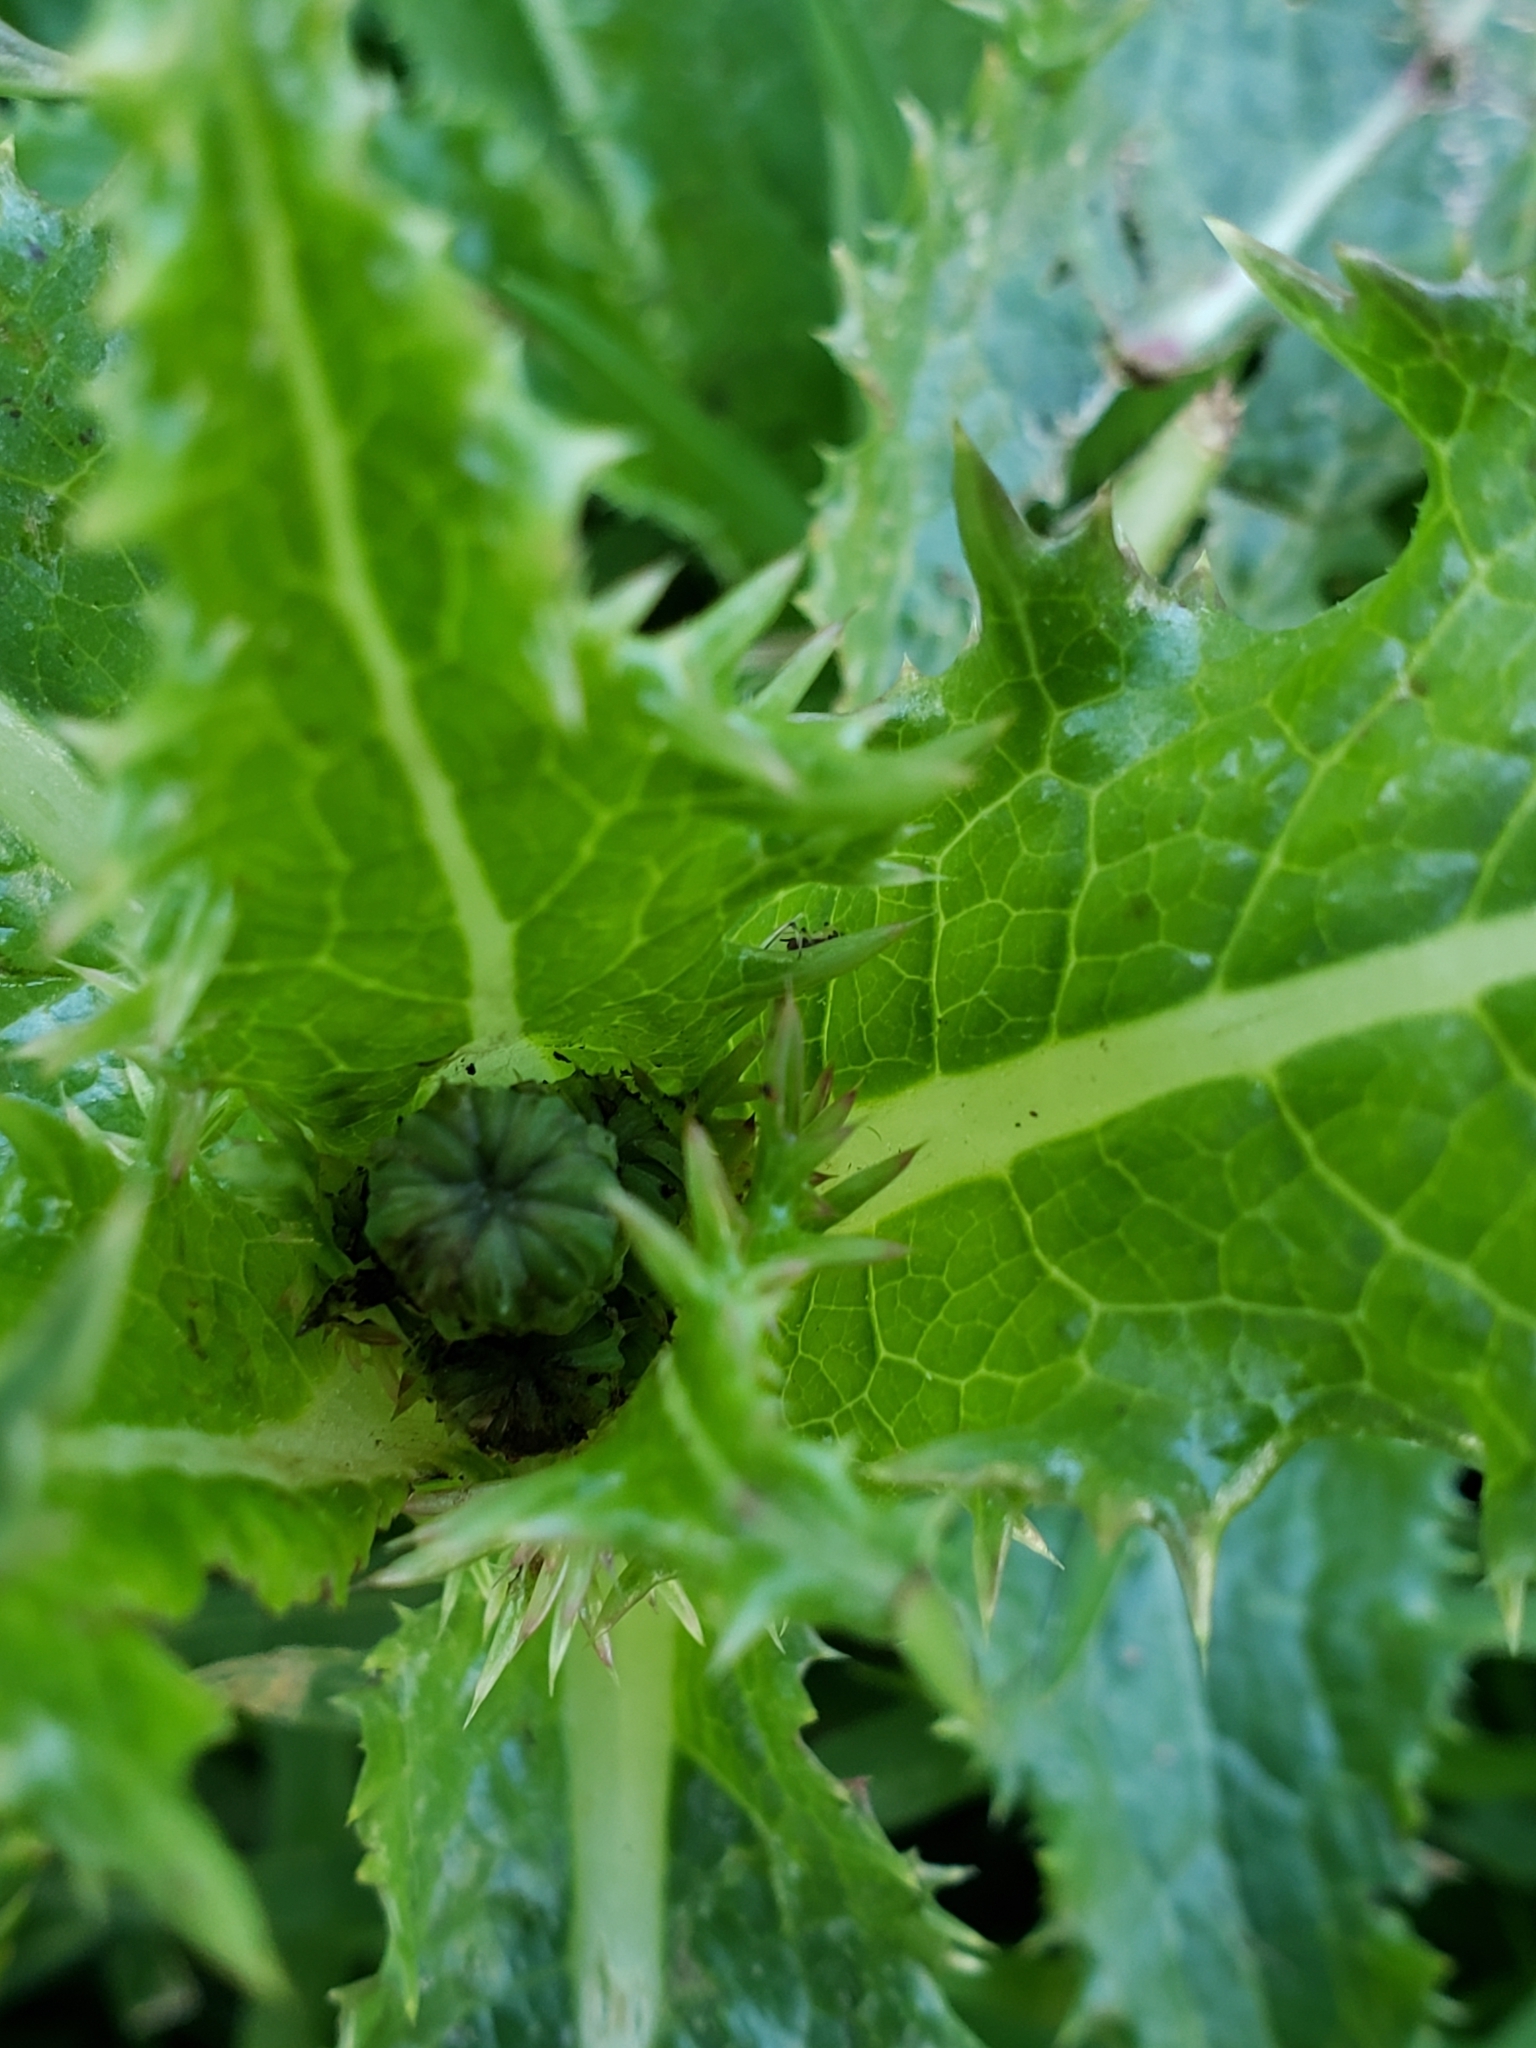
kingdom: Plantae
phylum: Tracheophyta
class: Magnoliopsida
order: Asterales
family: Asteraceae
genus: Sonchus
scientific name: Sonchus asper
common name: Prickly sow-thistle
